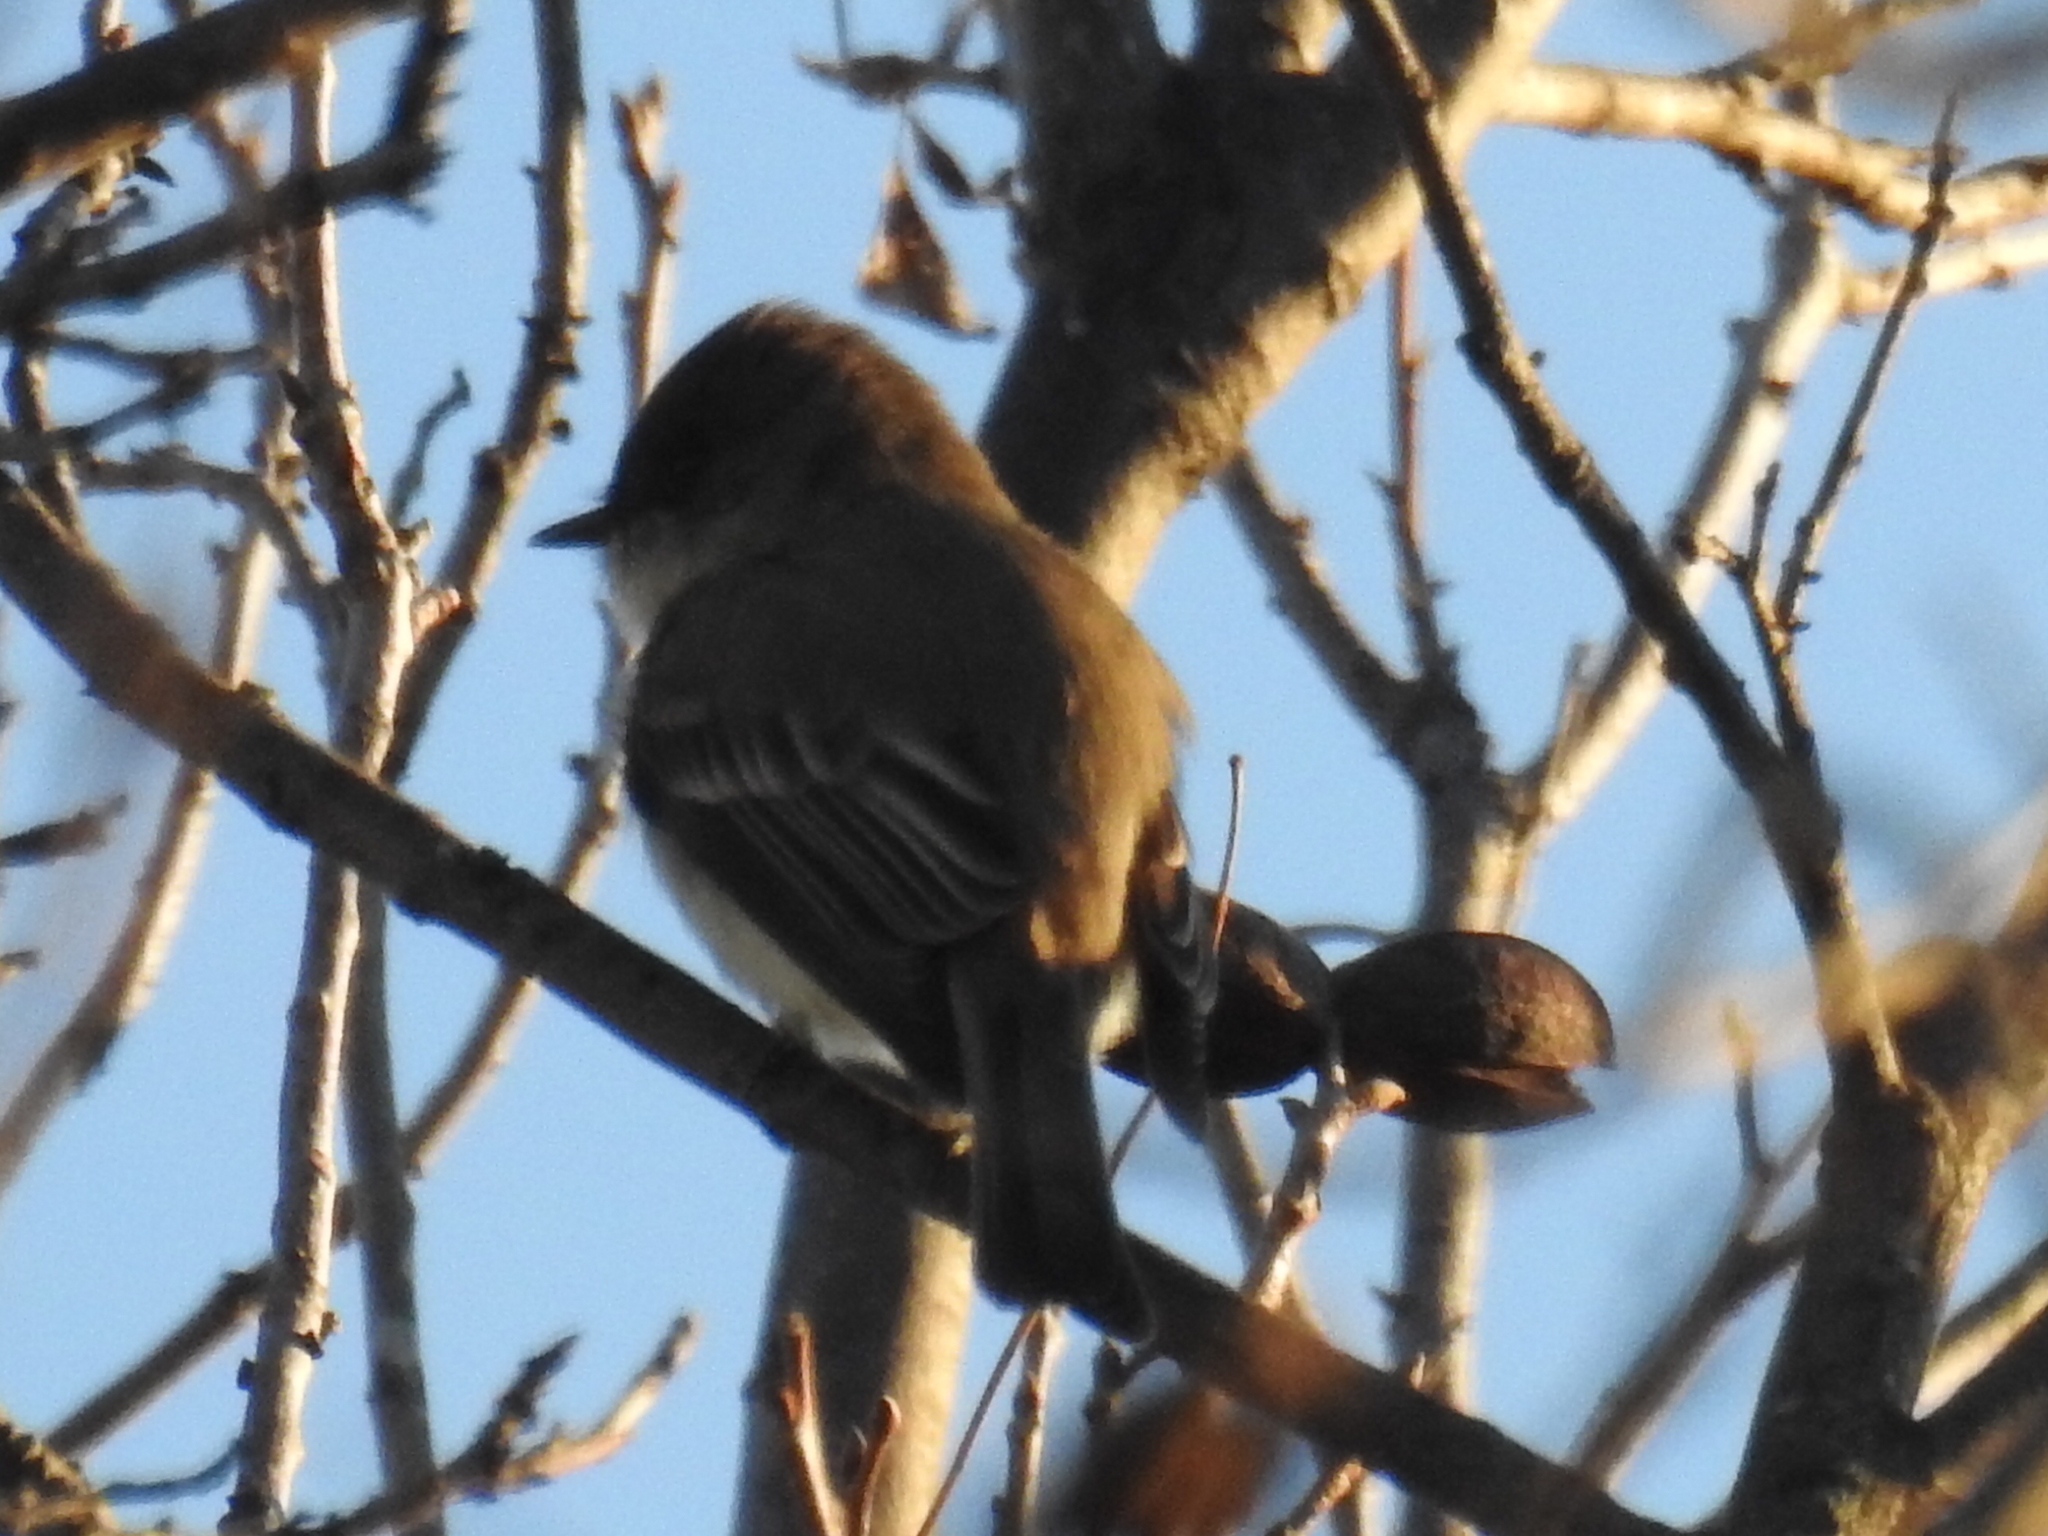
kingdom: Animalia
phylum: Chordata
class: Aves
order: Passeriformes
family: Tyrannidae
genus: Sayornis
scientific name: Sayornis phoebe
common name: Eastern phoebe
